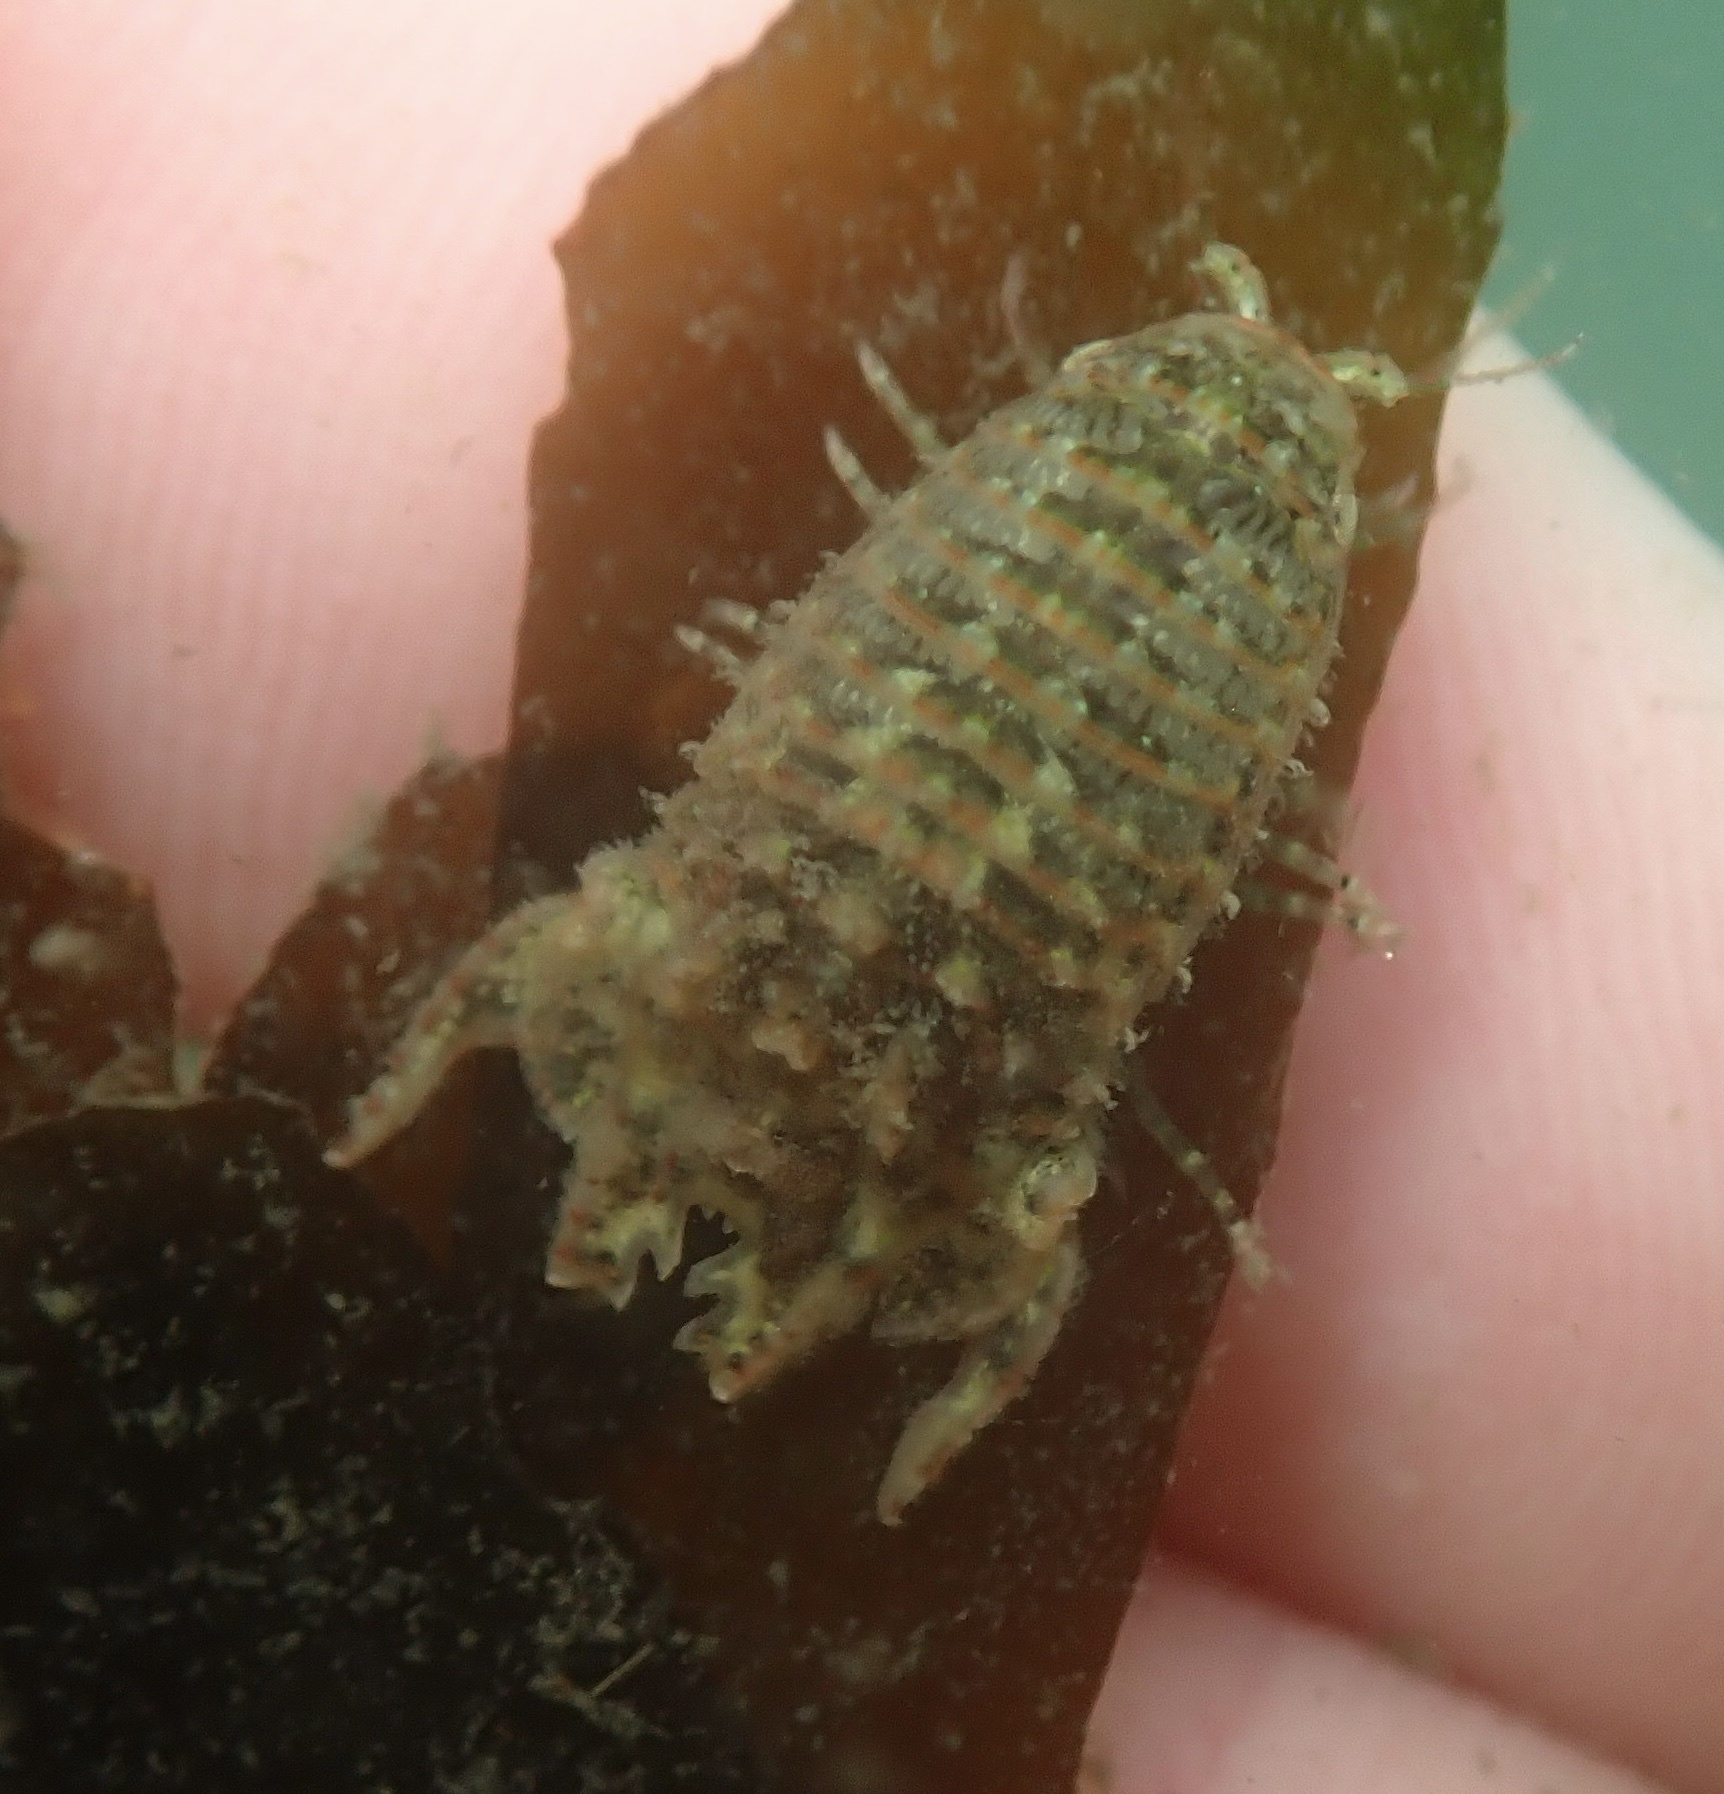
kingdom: Animalia
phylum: Arthropoda
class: Malacostraca
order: Isopoda
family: Sphaeromatidae
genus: Paracerceis
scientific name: Paracerceis cordata
